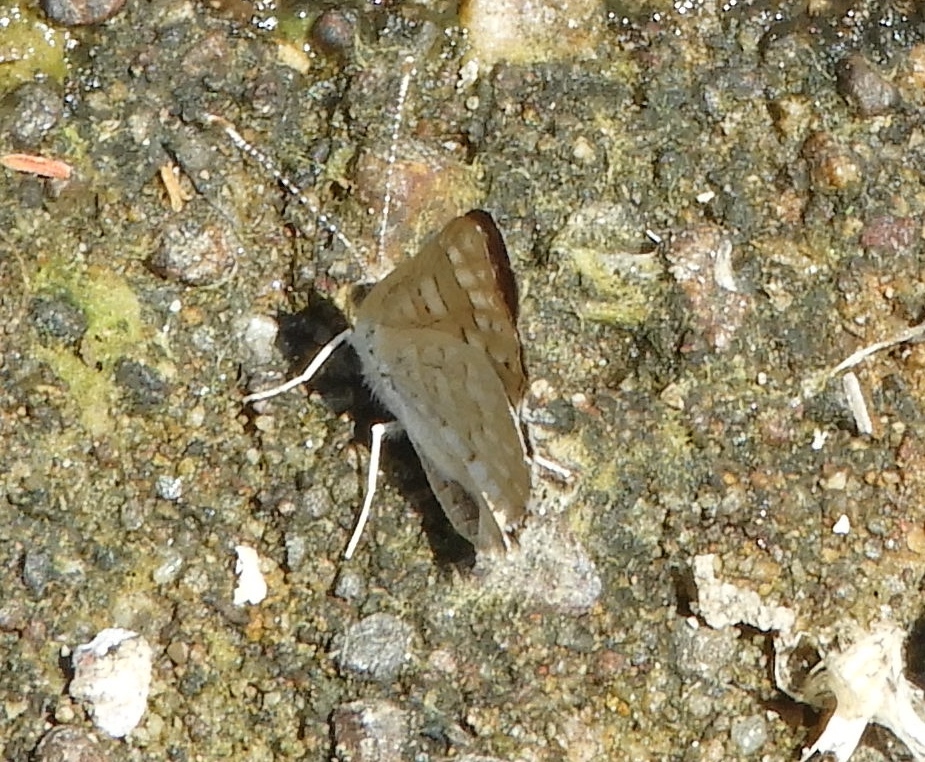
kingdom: Animalia
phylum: Arthropoda
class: Insecta
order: Lepidoptera
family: Riodinidae
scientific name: Riodinidae
